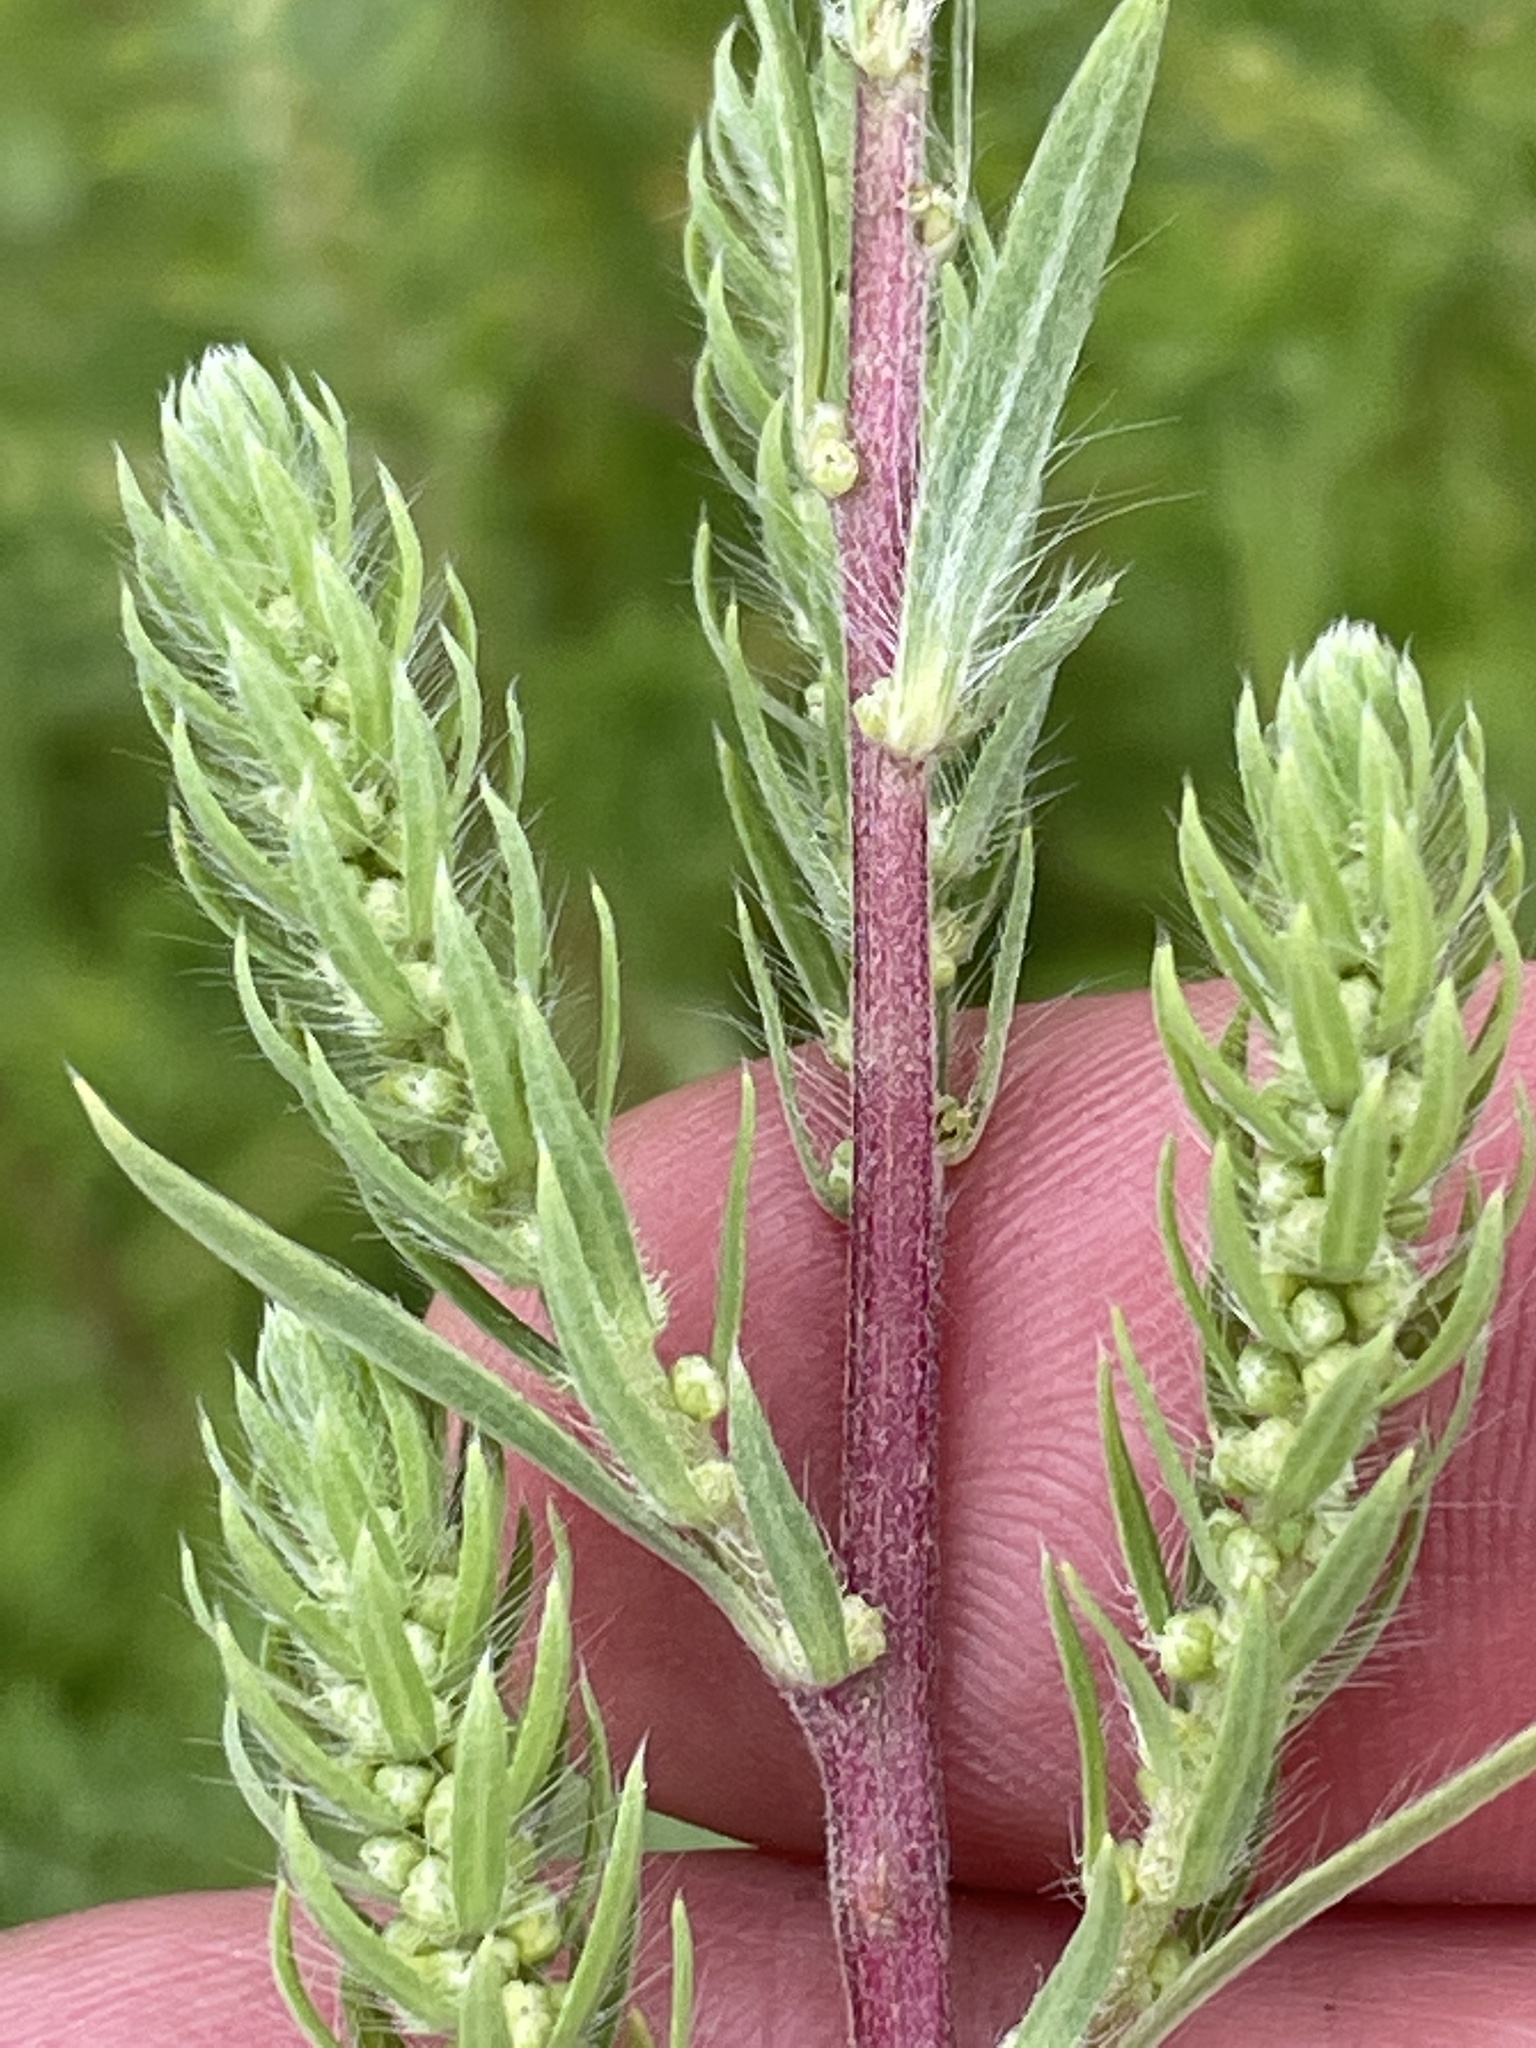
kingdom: Plantae
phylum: Tracheophyta
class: Magnoliopsida
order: Caryophyllales
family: Amaranthaceae
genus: Bassia
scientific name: Bassia scoparia
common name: Belvedere
